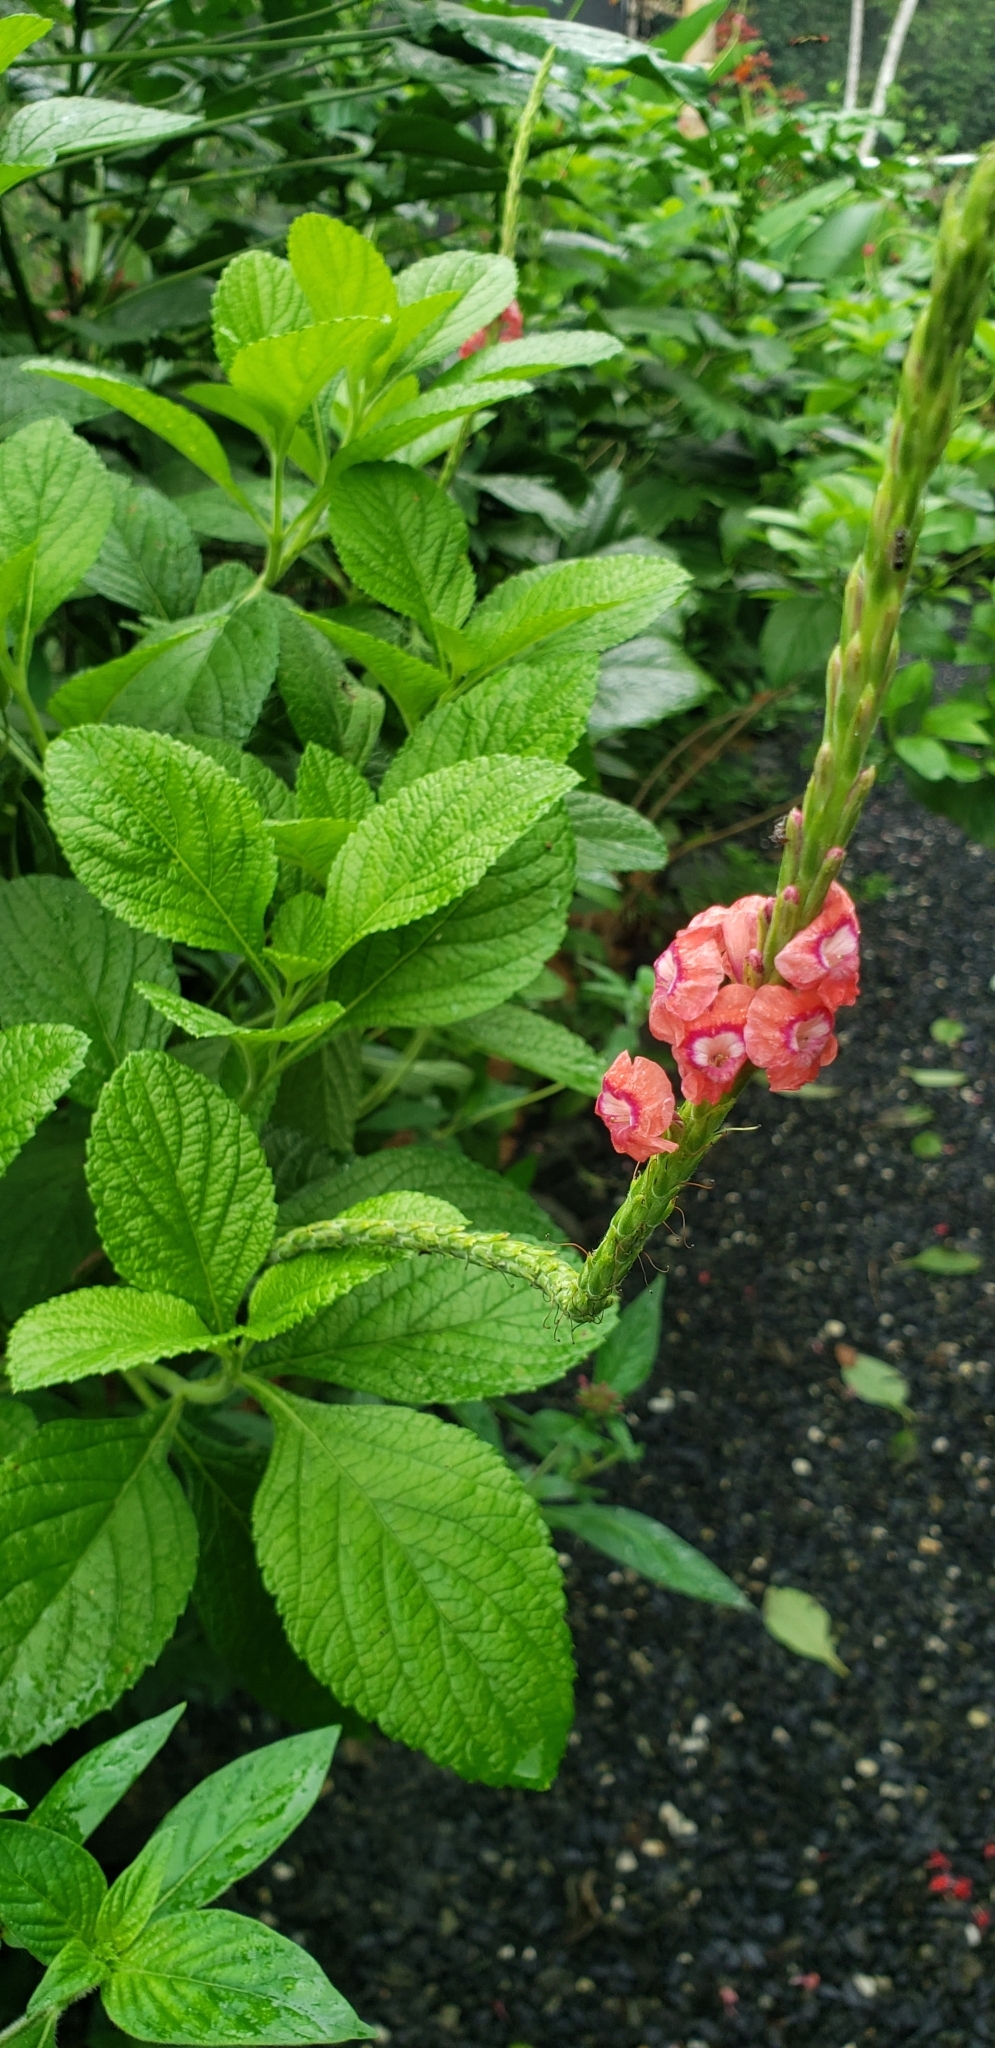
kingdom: Plantae
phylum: Tracheophyta
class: Magnoliopsida
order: Lamiales
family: Verbenaceae
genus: Stachytarpheta
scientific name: Stachytarpheta mutabilis
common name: Changeable velvetberry
